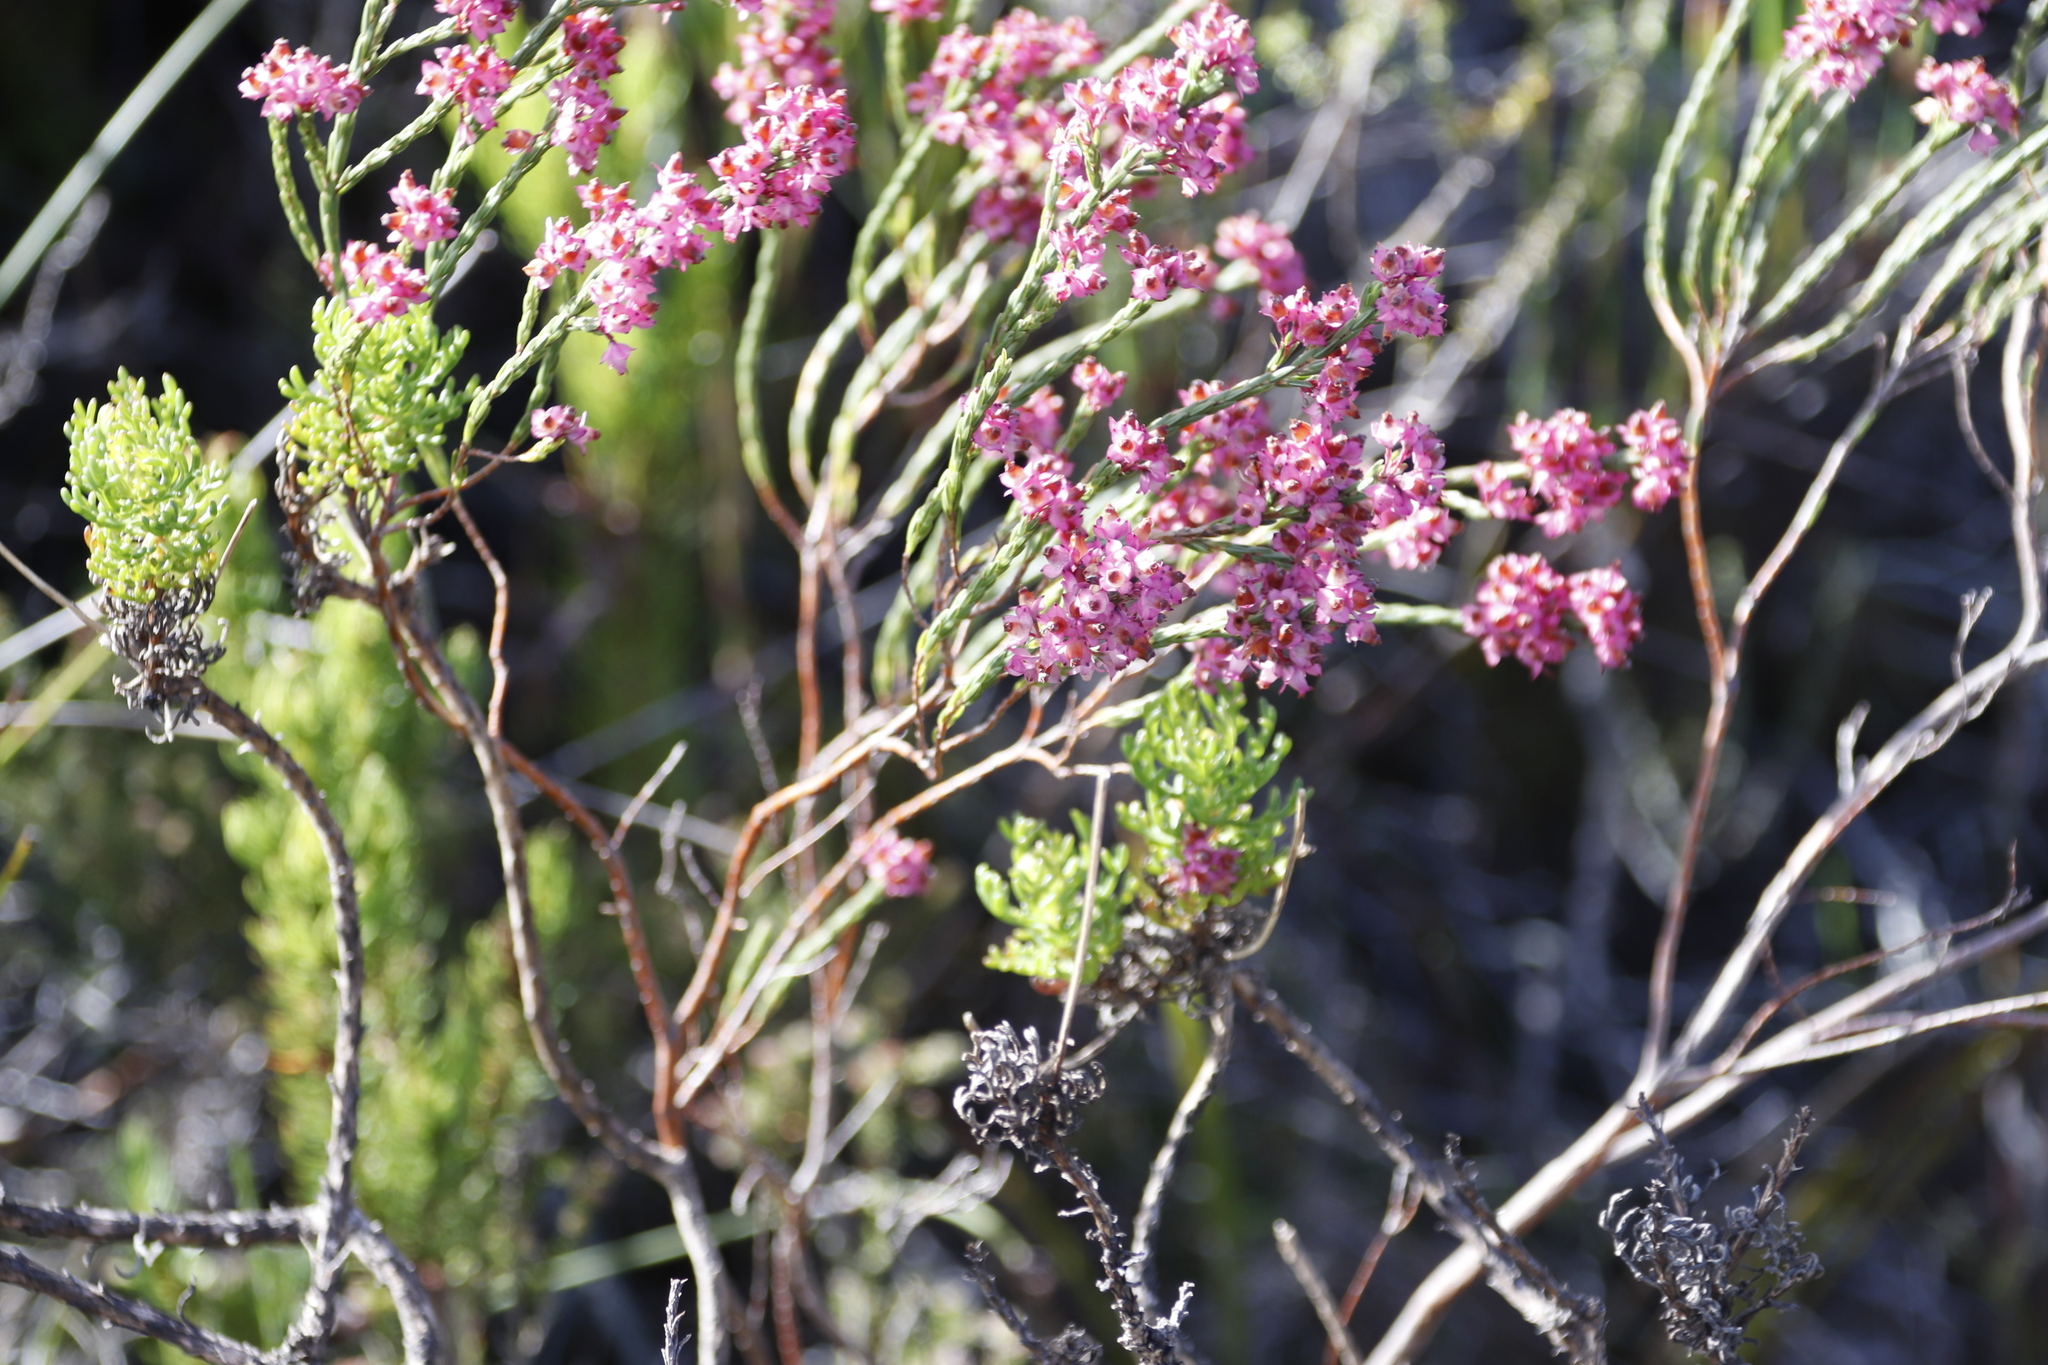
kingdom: Plantae
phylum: Tracheophyta
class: Magnoliopsida
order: Ericales
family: Ericaceae
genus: Erica
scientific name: Erica corifolia
